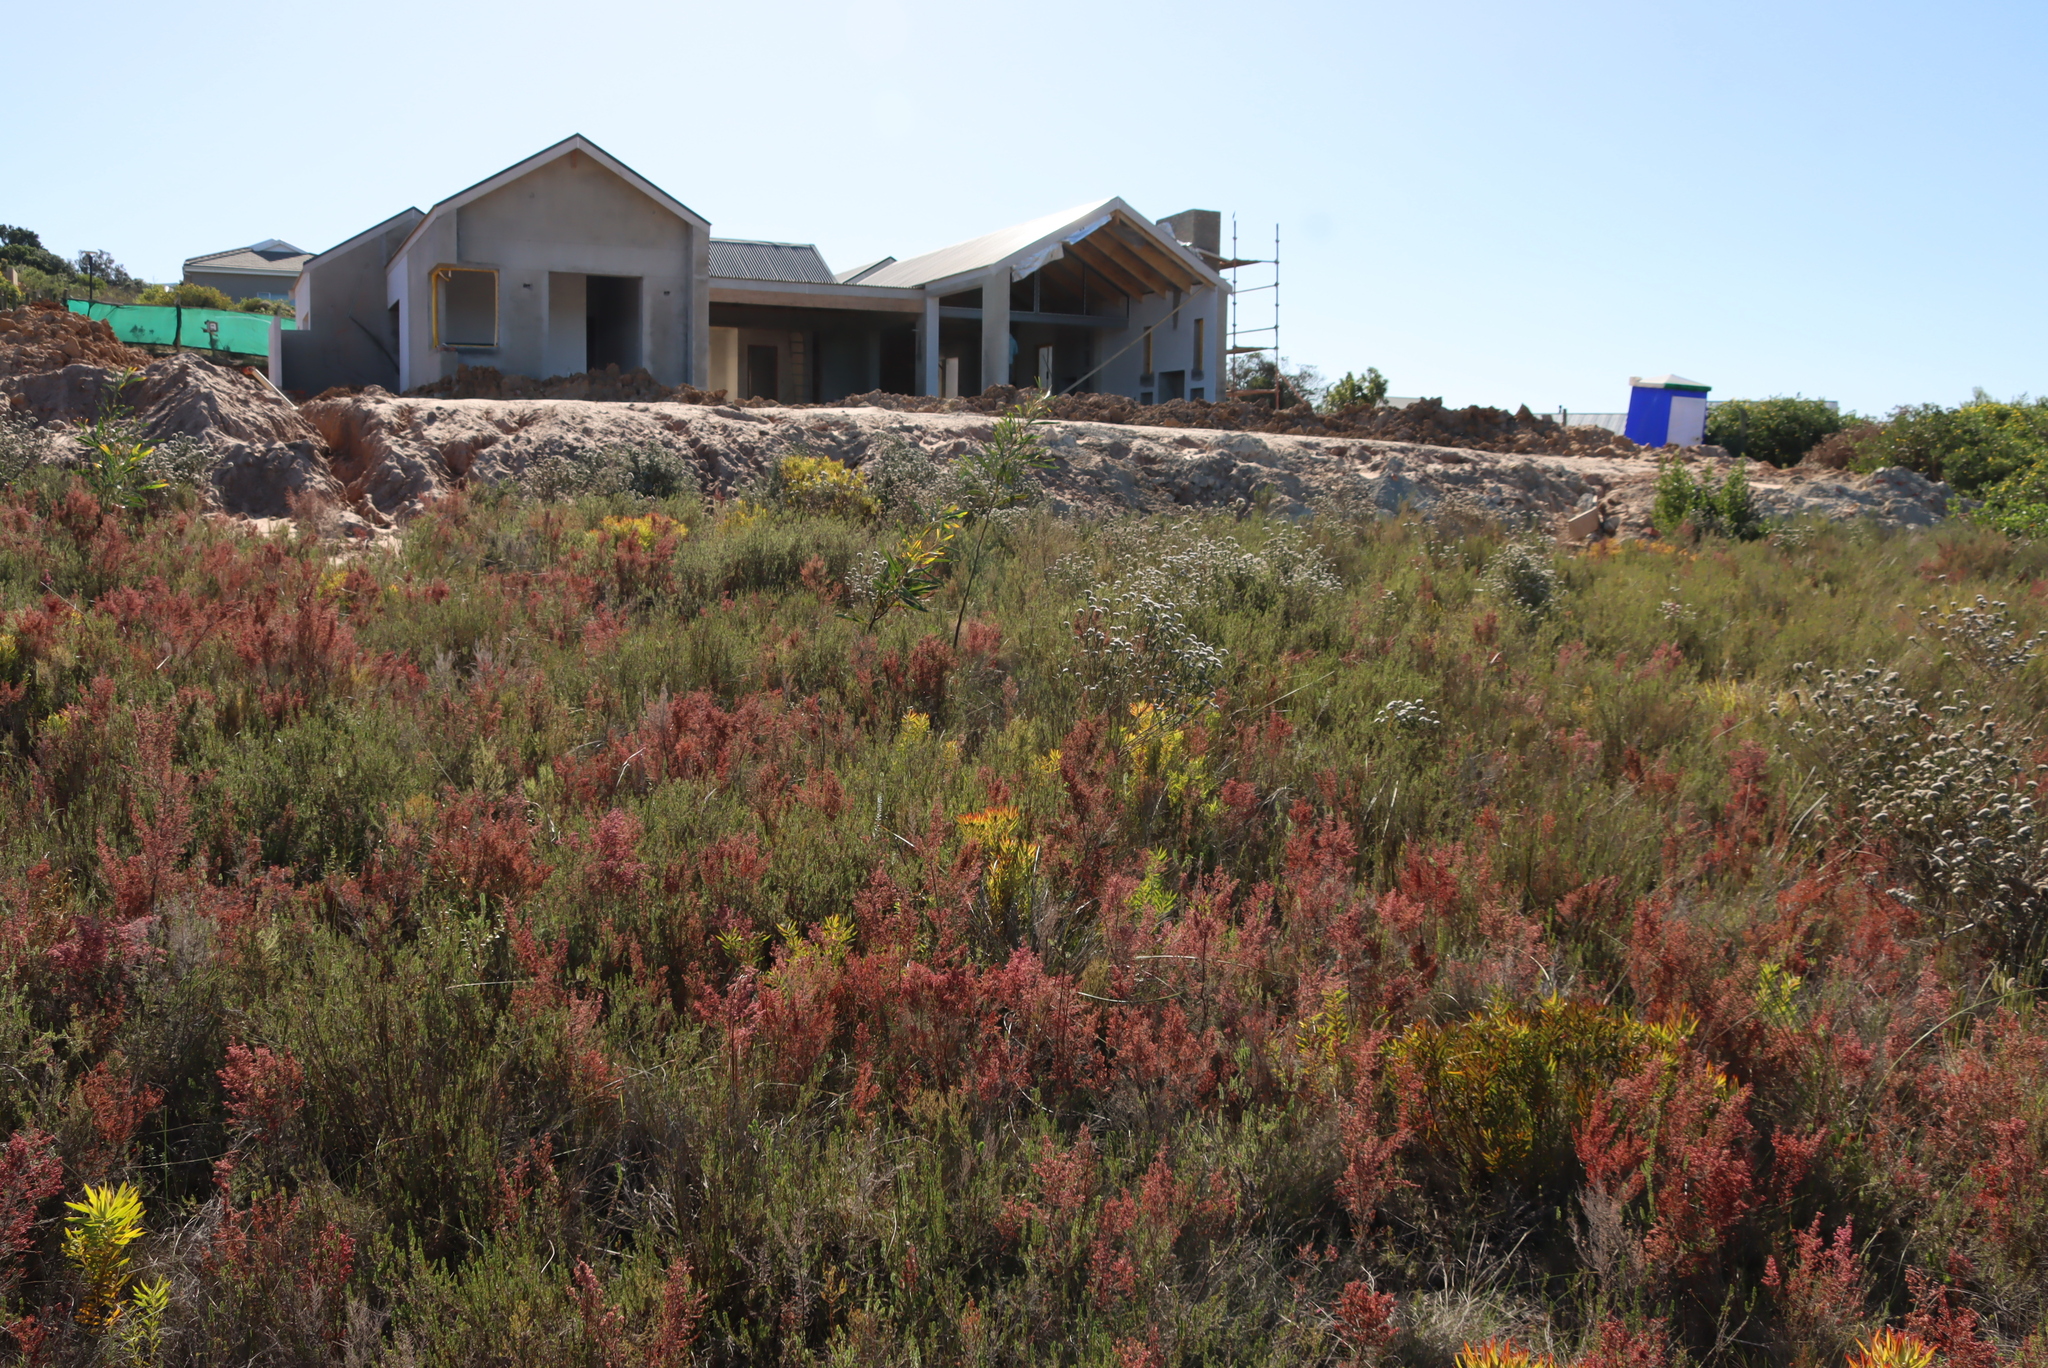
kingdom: Plantae
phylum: Tracheophyta
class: Magnoliopsida
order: Ericales
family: Ericaceae
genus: Erica
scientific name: Erica peltata
